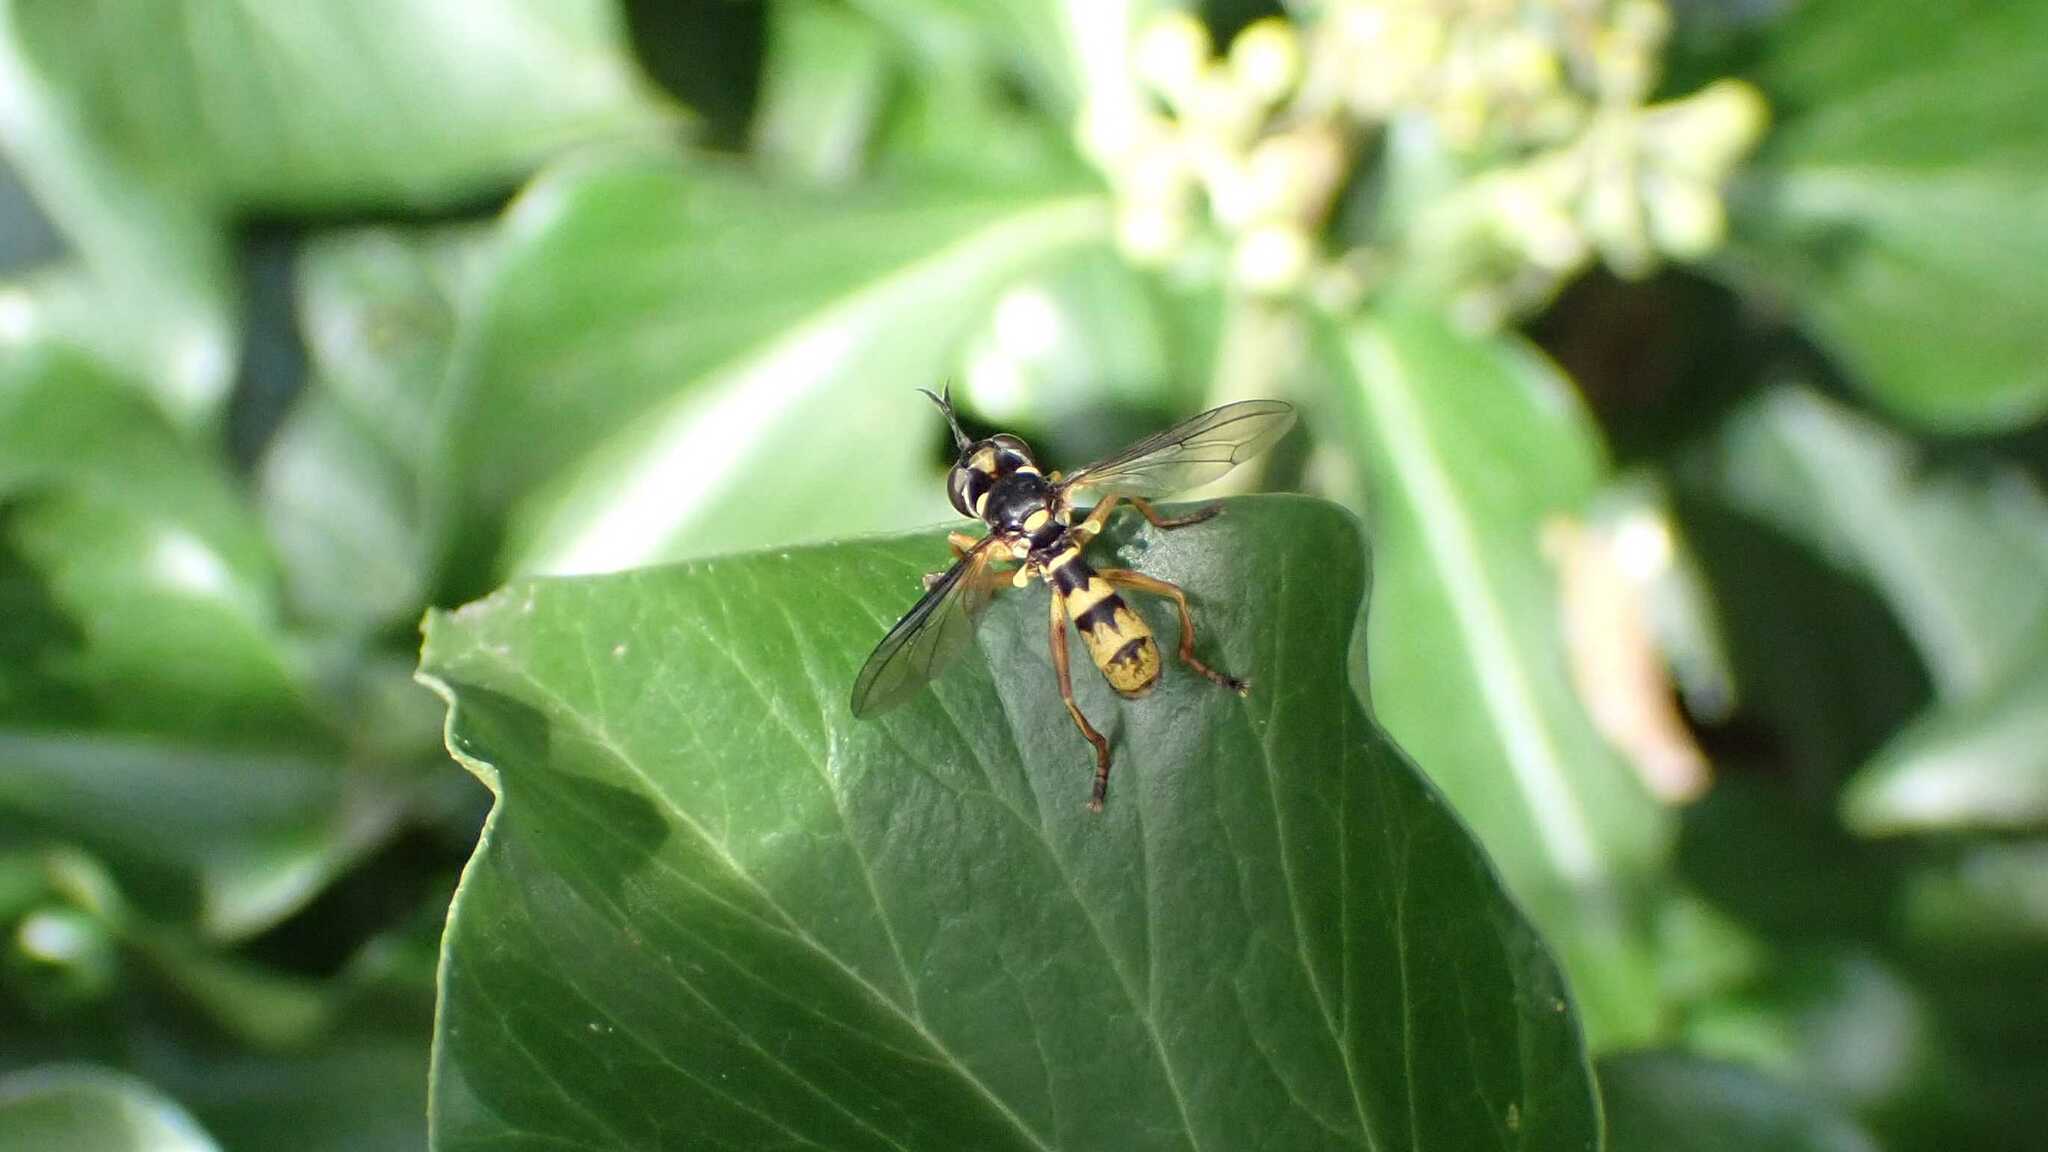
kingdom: Animalia
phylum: Arthropoda
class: Insecta
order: Diptera
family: Conopidae
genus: Leopoldius
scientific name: Leopoldius signatus
